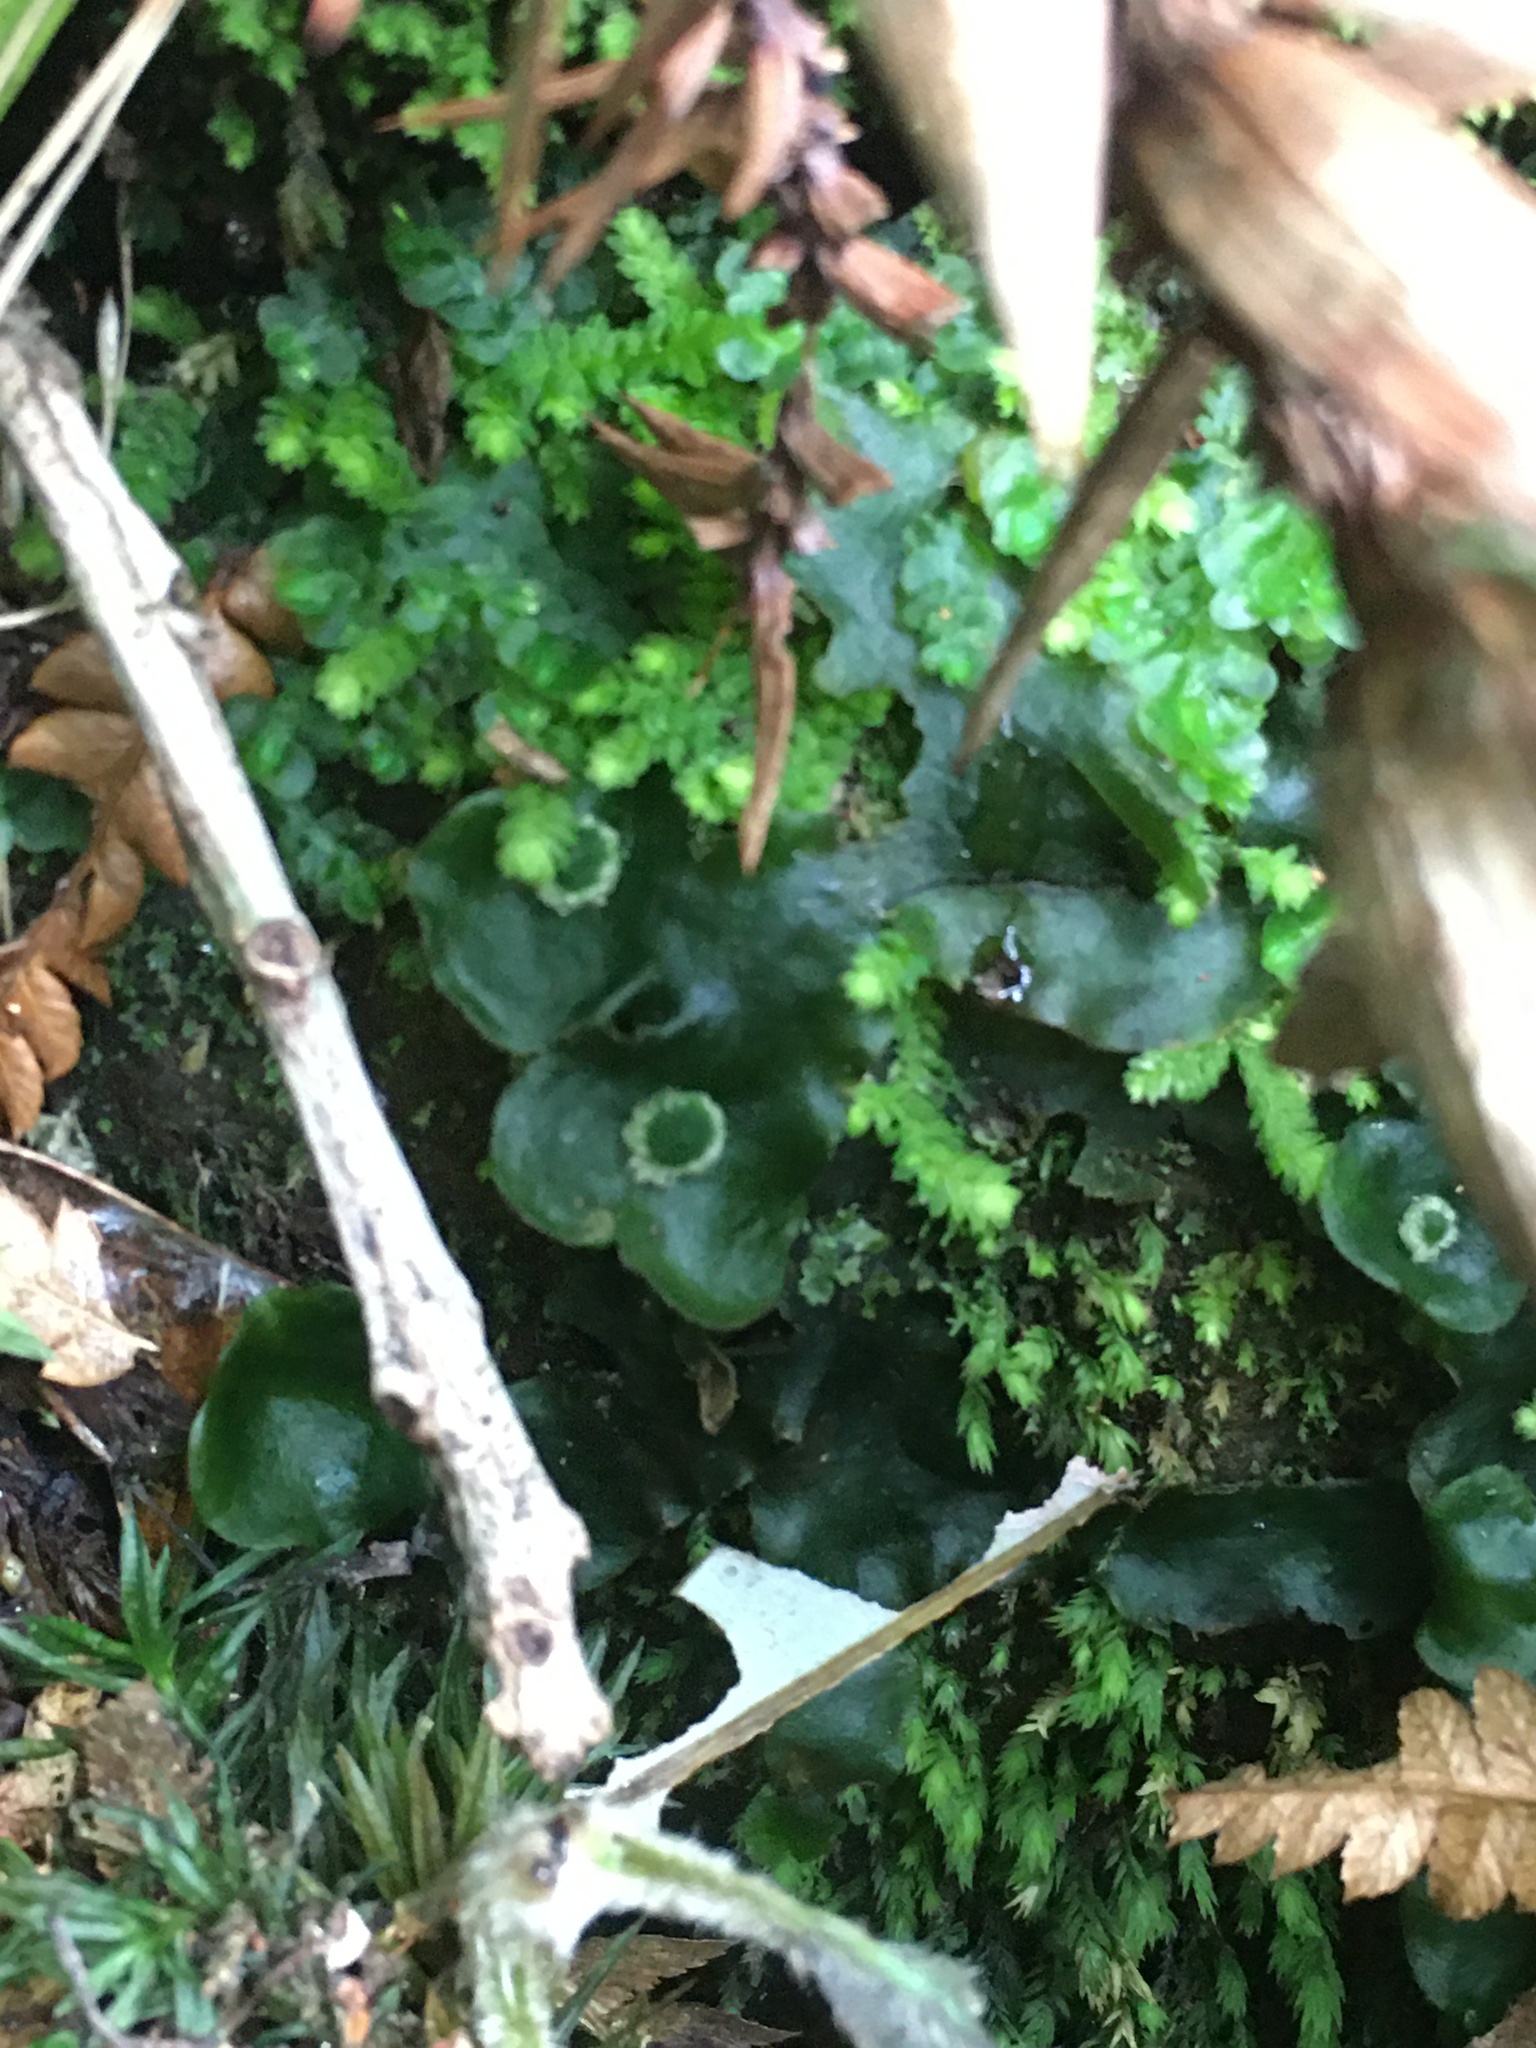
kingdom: Plantae
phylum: Marchantiophyta
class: Marchantiopsida
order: Marchantiales
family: Dumortieraceae
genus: Dumortiera
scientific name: Dumortiera hirsuta
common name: Dumortier's liverwort
